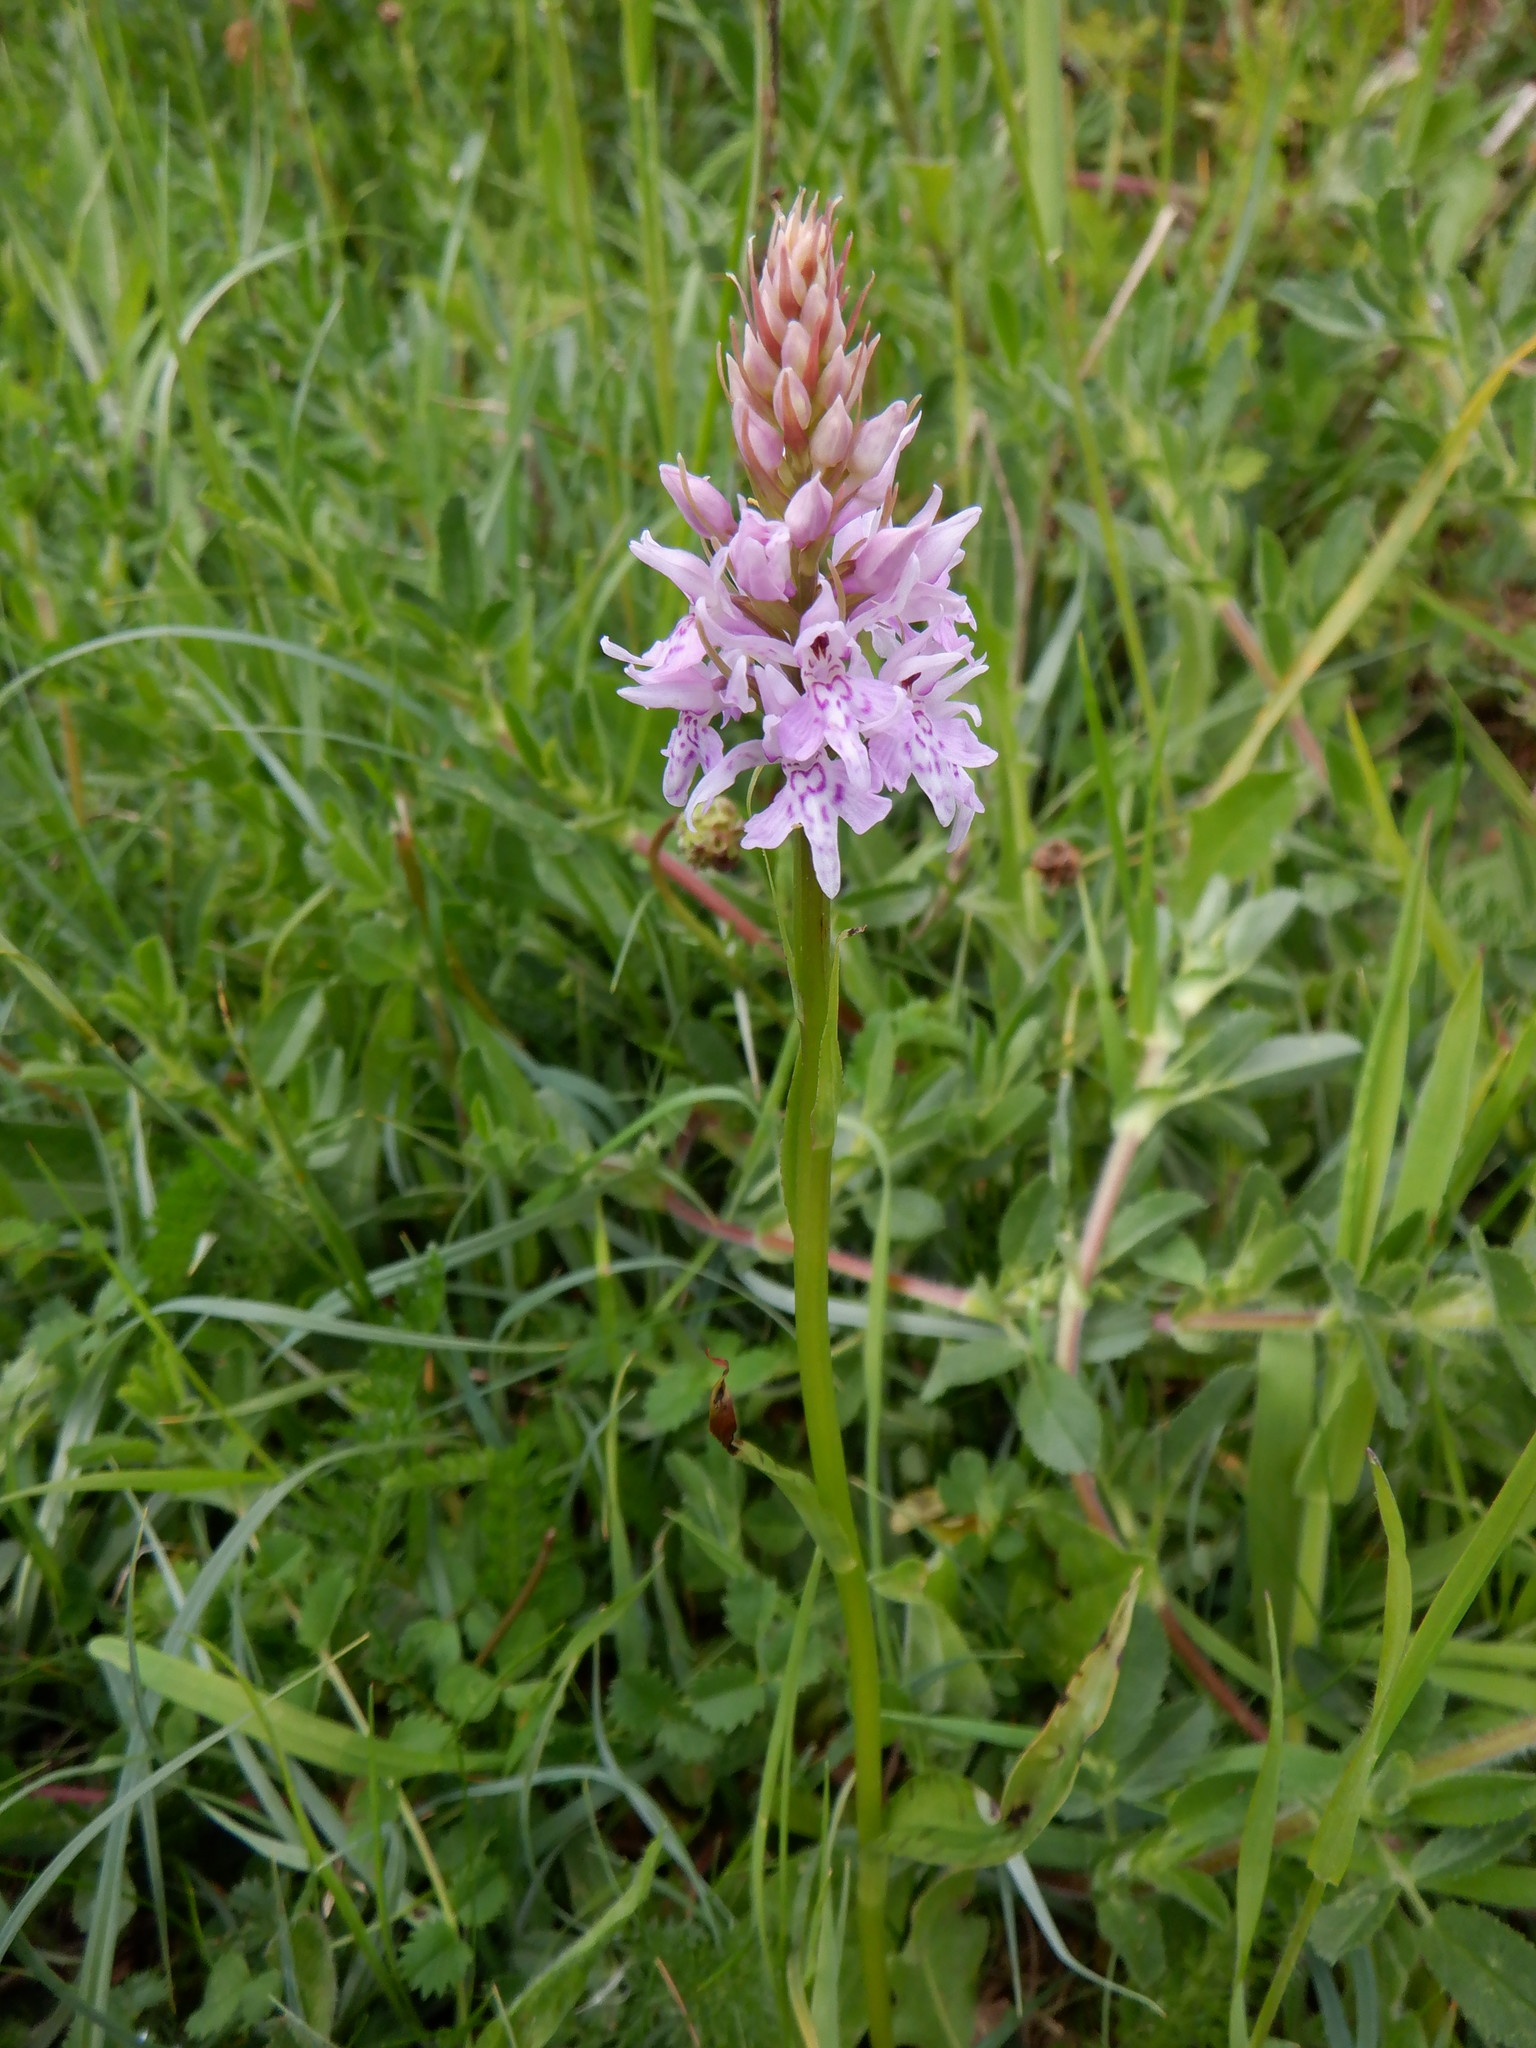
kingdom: Plantae
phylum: Tracheophyta
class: Liliopsida
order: Asparagales
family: Orchidaceae
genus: Dactylorhiza
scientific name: Dactylorhiza maculata
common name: Heath spotted-orchid
